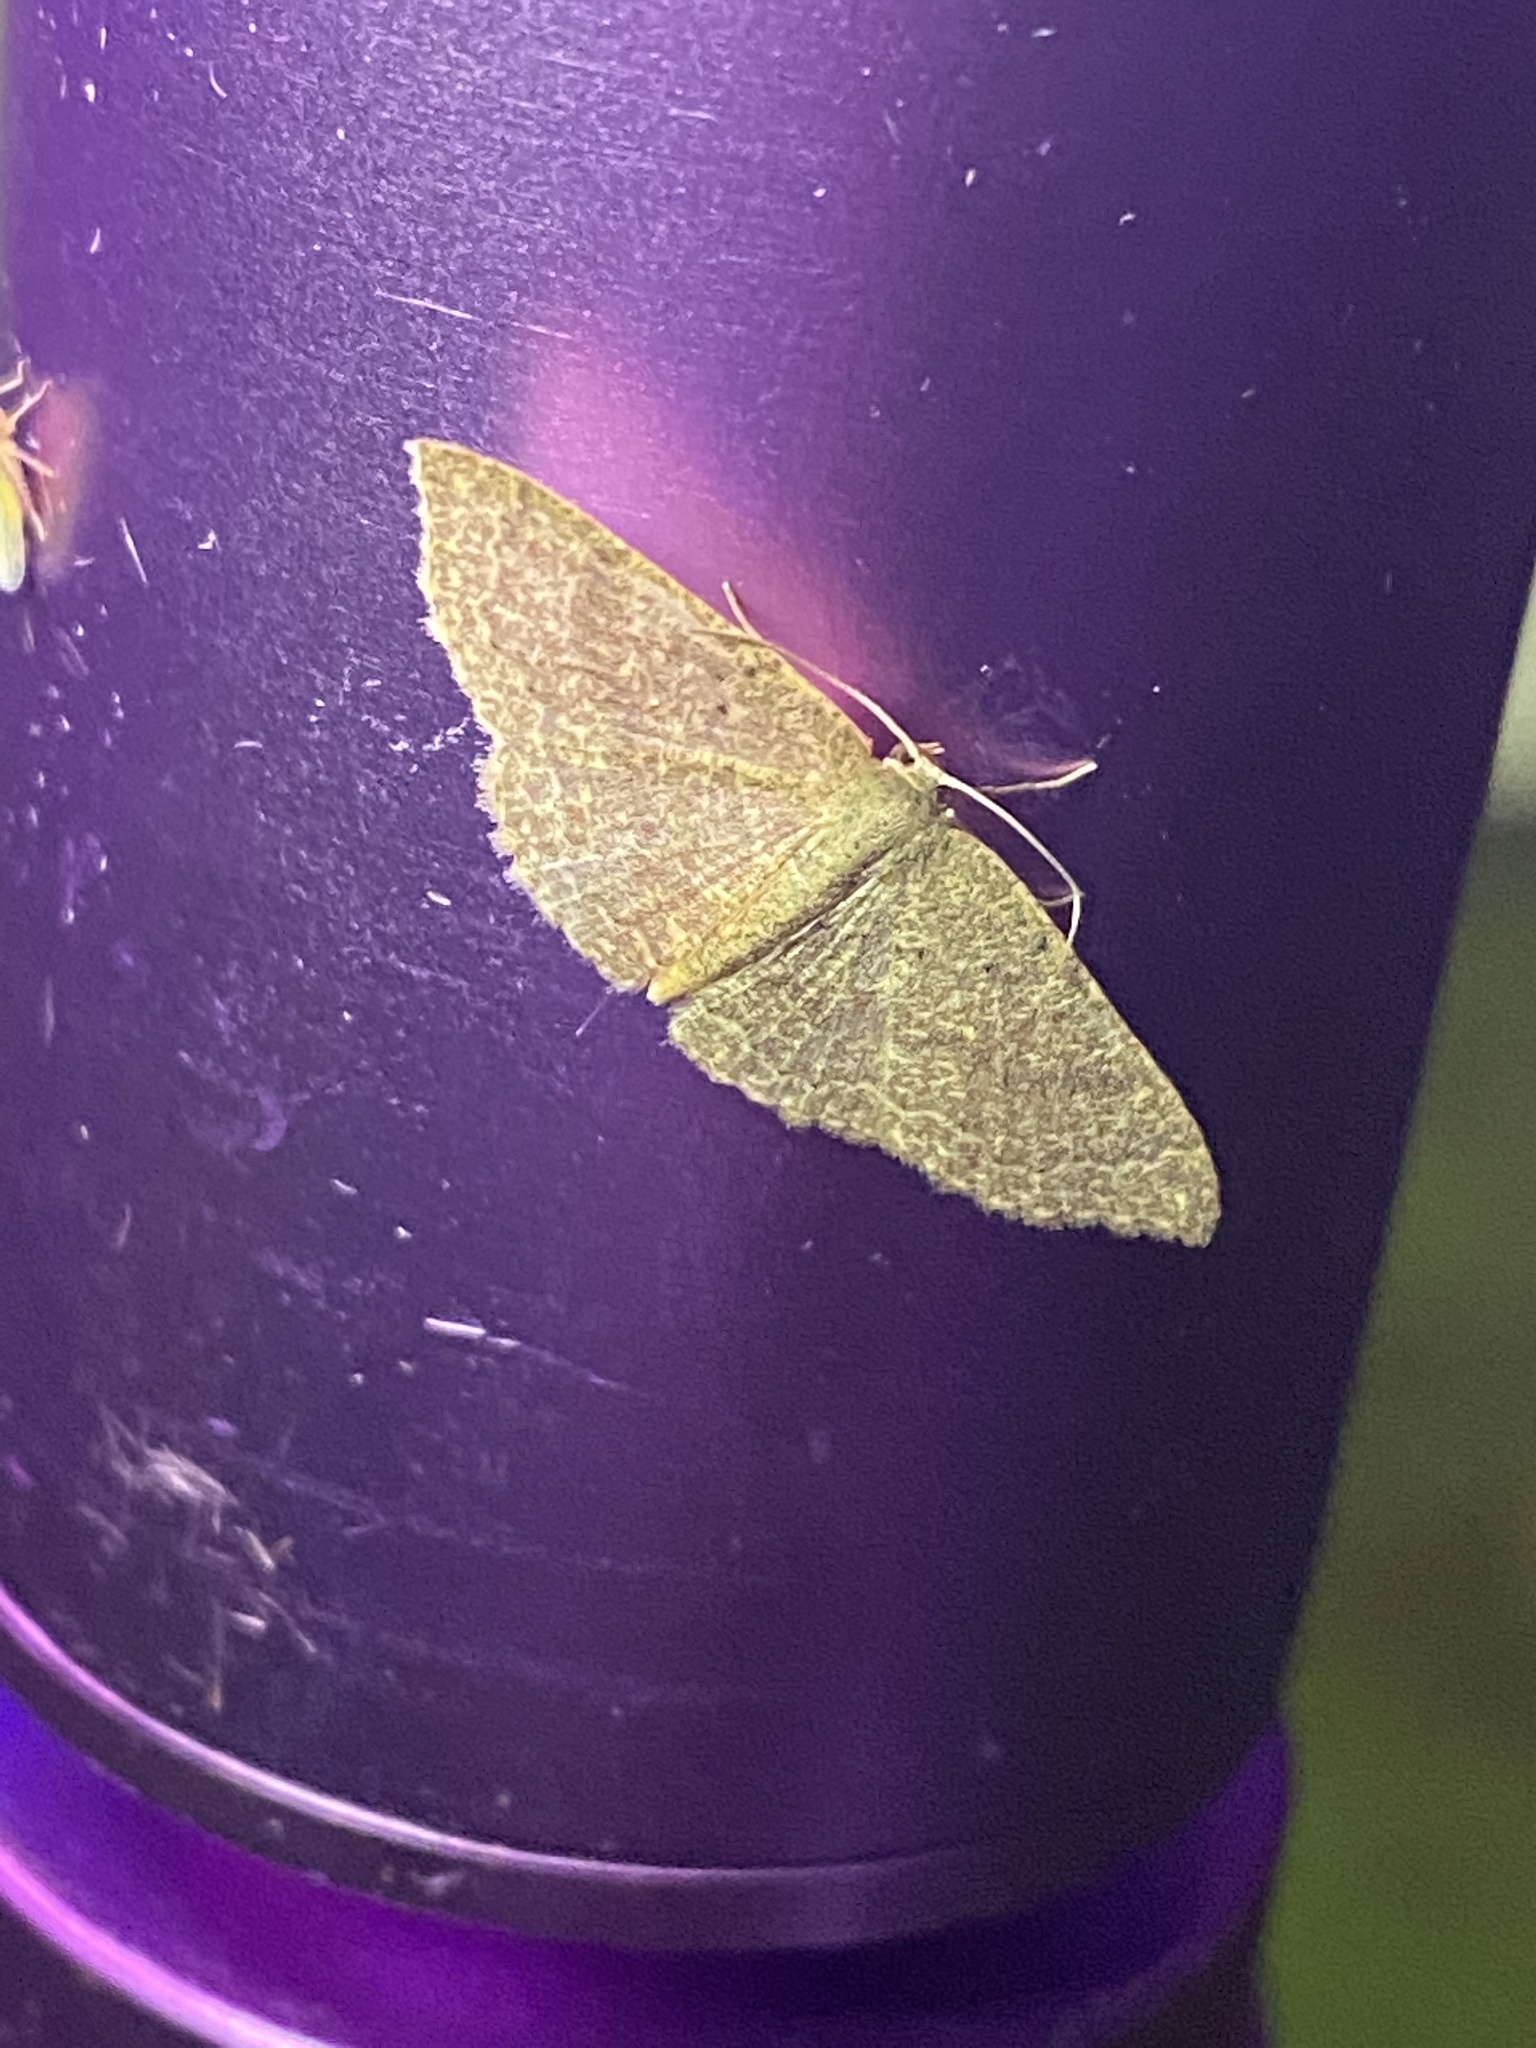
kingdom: Animalia
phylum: Arthropoda
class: Insecta
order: Lepidoptera
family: Geometridae
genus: Pleuroprucha
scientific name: Pleuroprucha insulsaria
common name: Common tan wave
